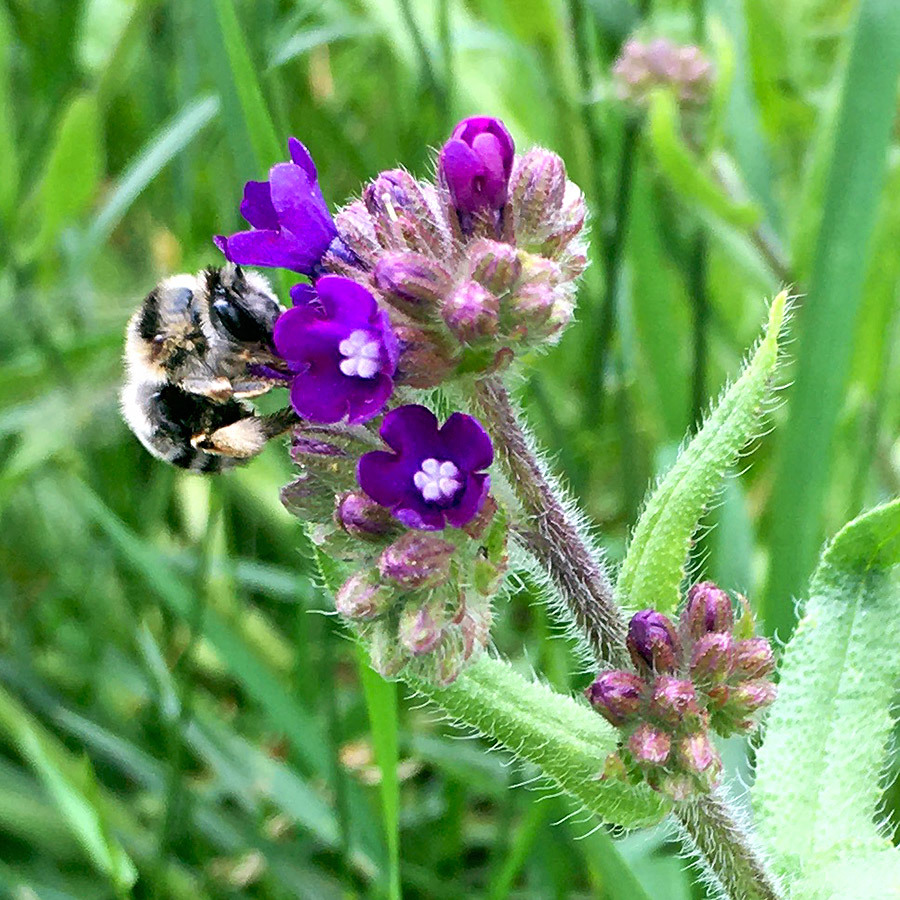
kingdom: Animalia
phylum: Arthropoda
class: Insecta
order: Hymenoptera
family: Apidae
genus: Anthophora
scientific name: Anthophora aestivalis
